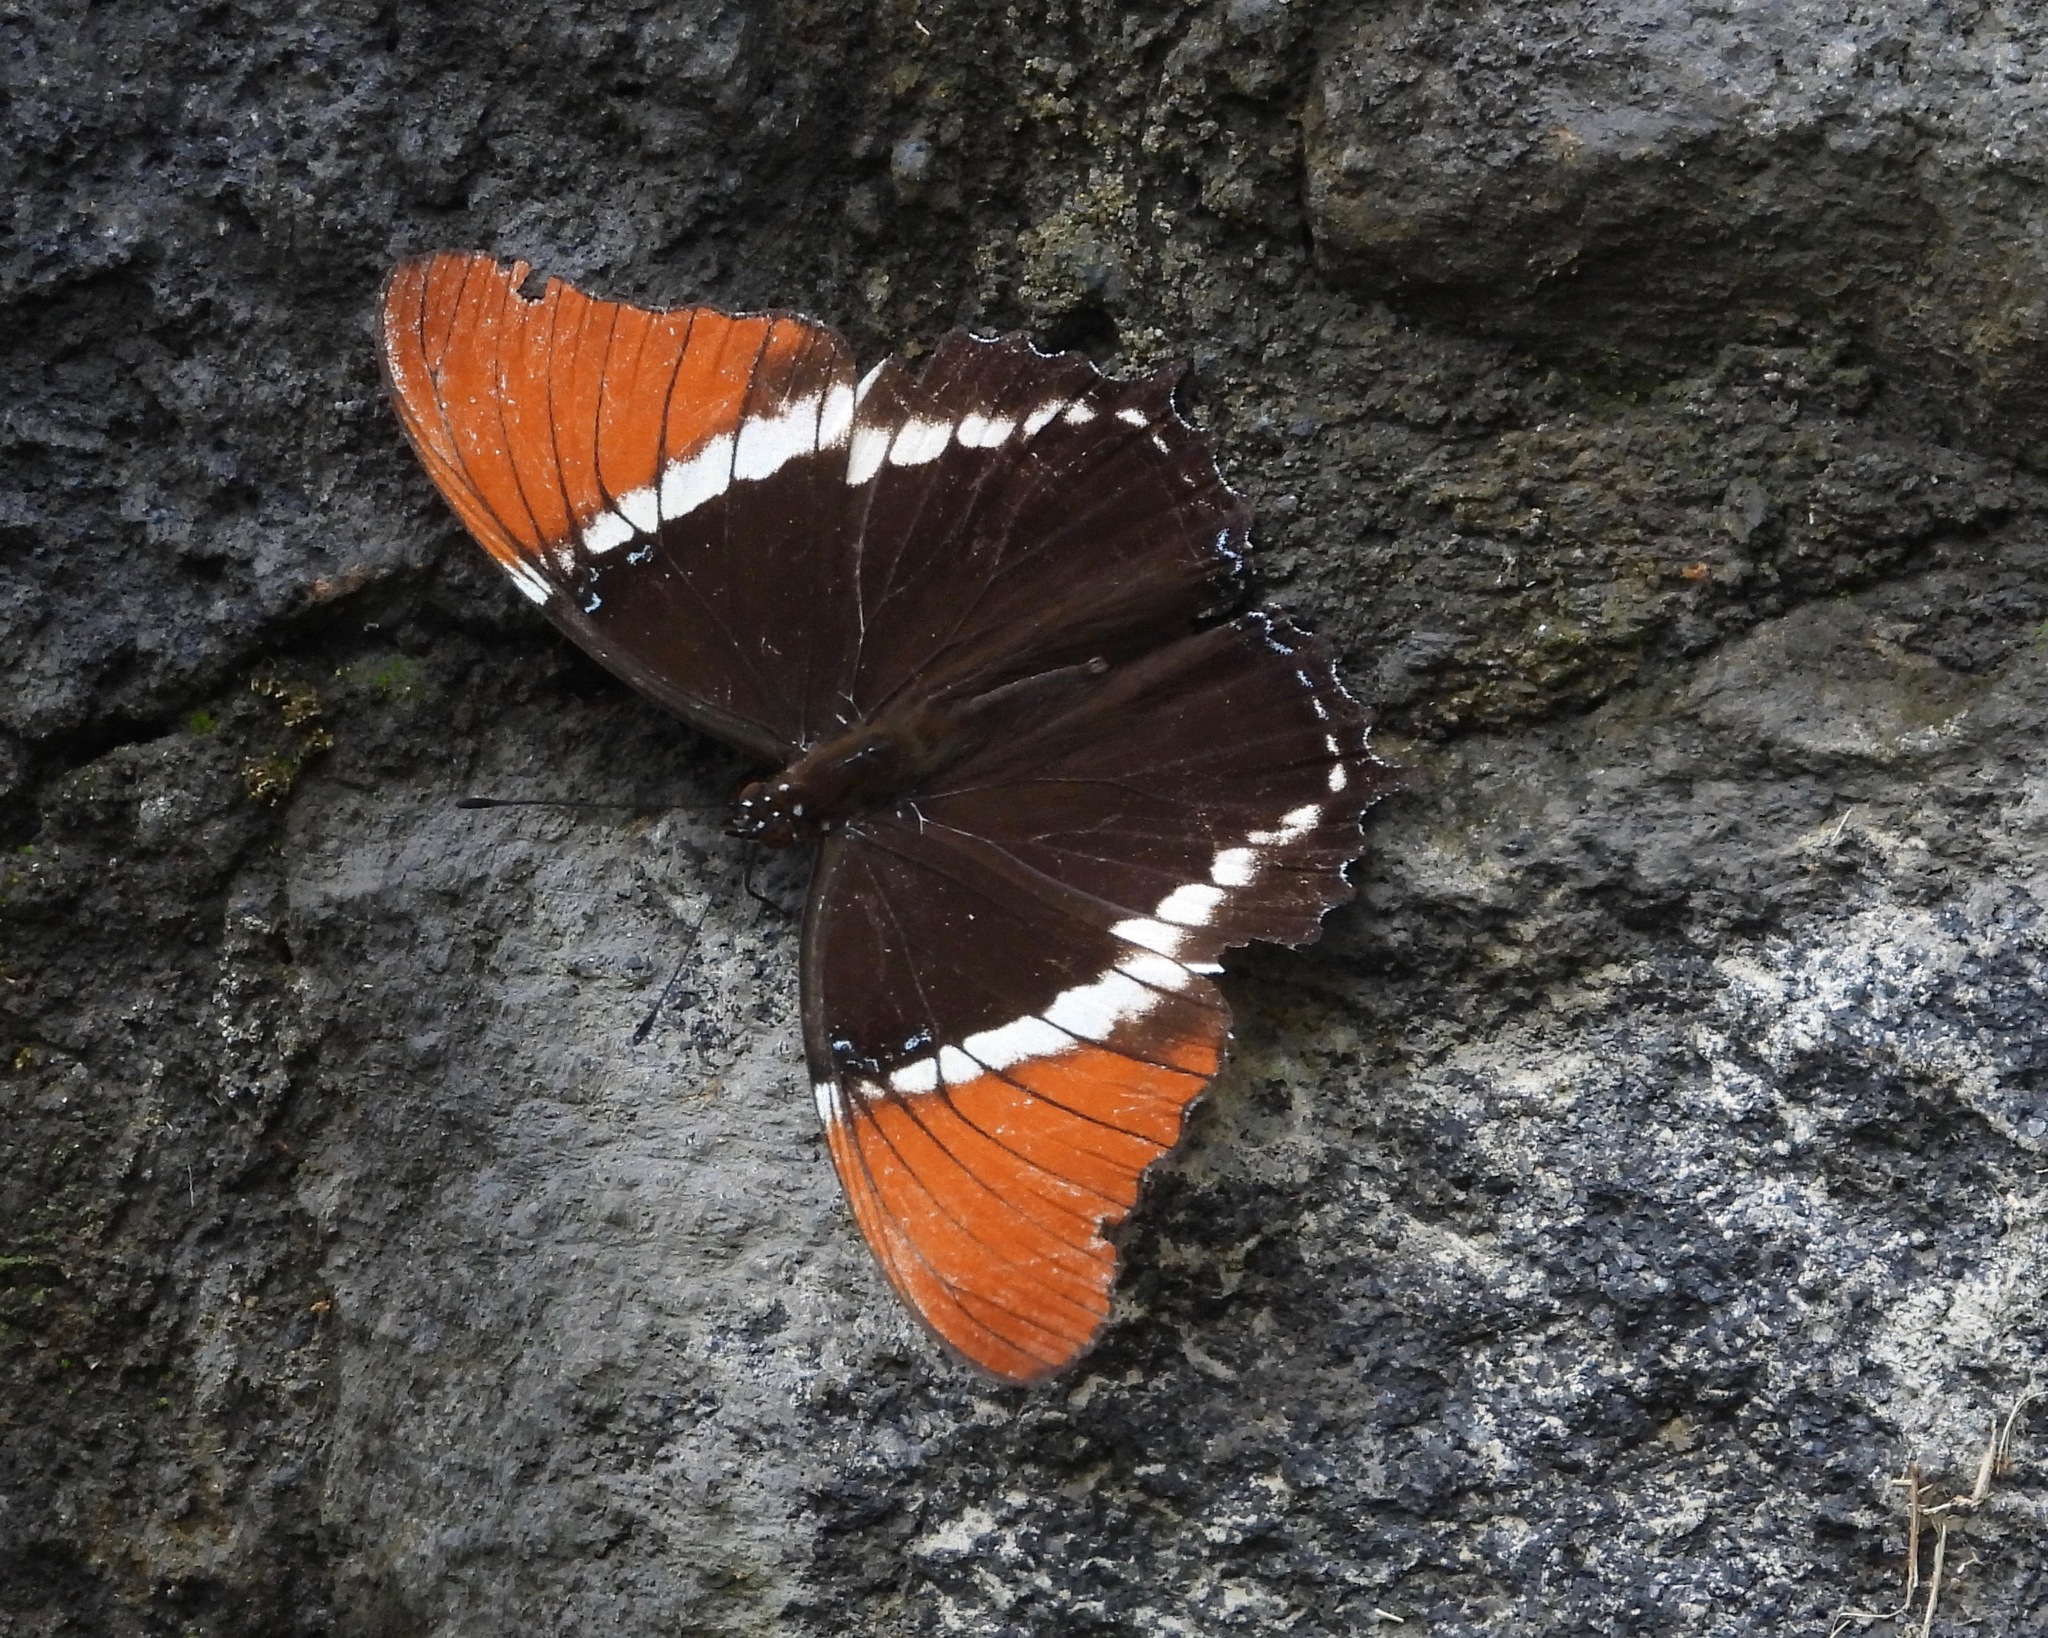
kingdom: Animalia
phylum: Arthropoda
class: Insecta
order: Lepidoptera
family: Nymphalidae
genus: Siproeta
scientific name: Siproeta epaphus
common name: Rusty-tipped page
